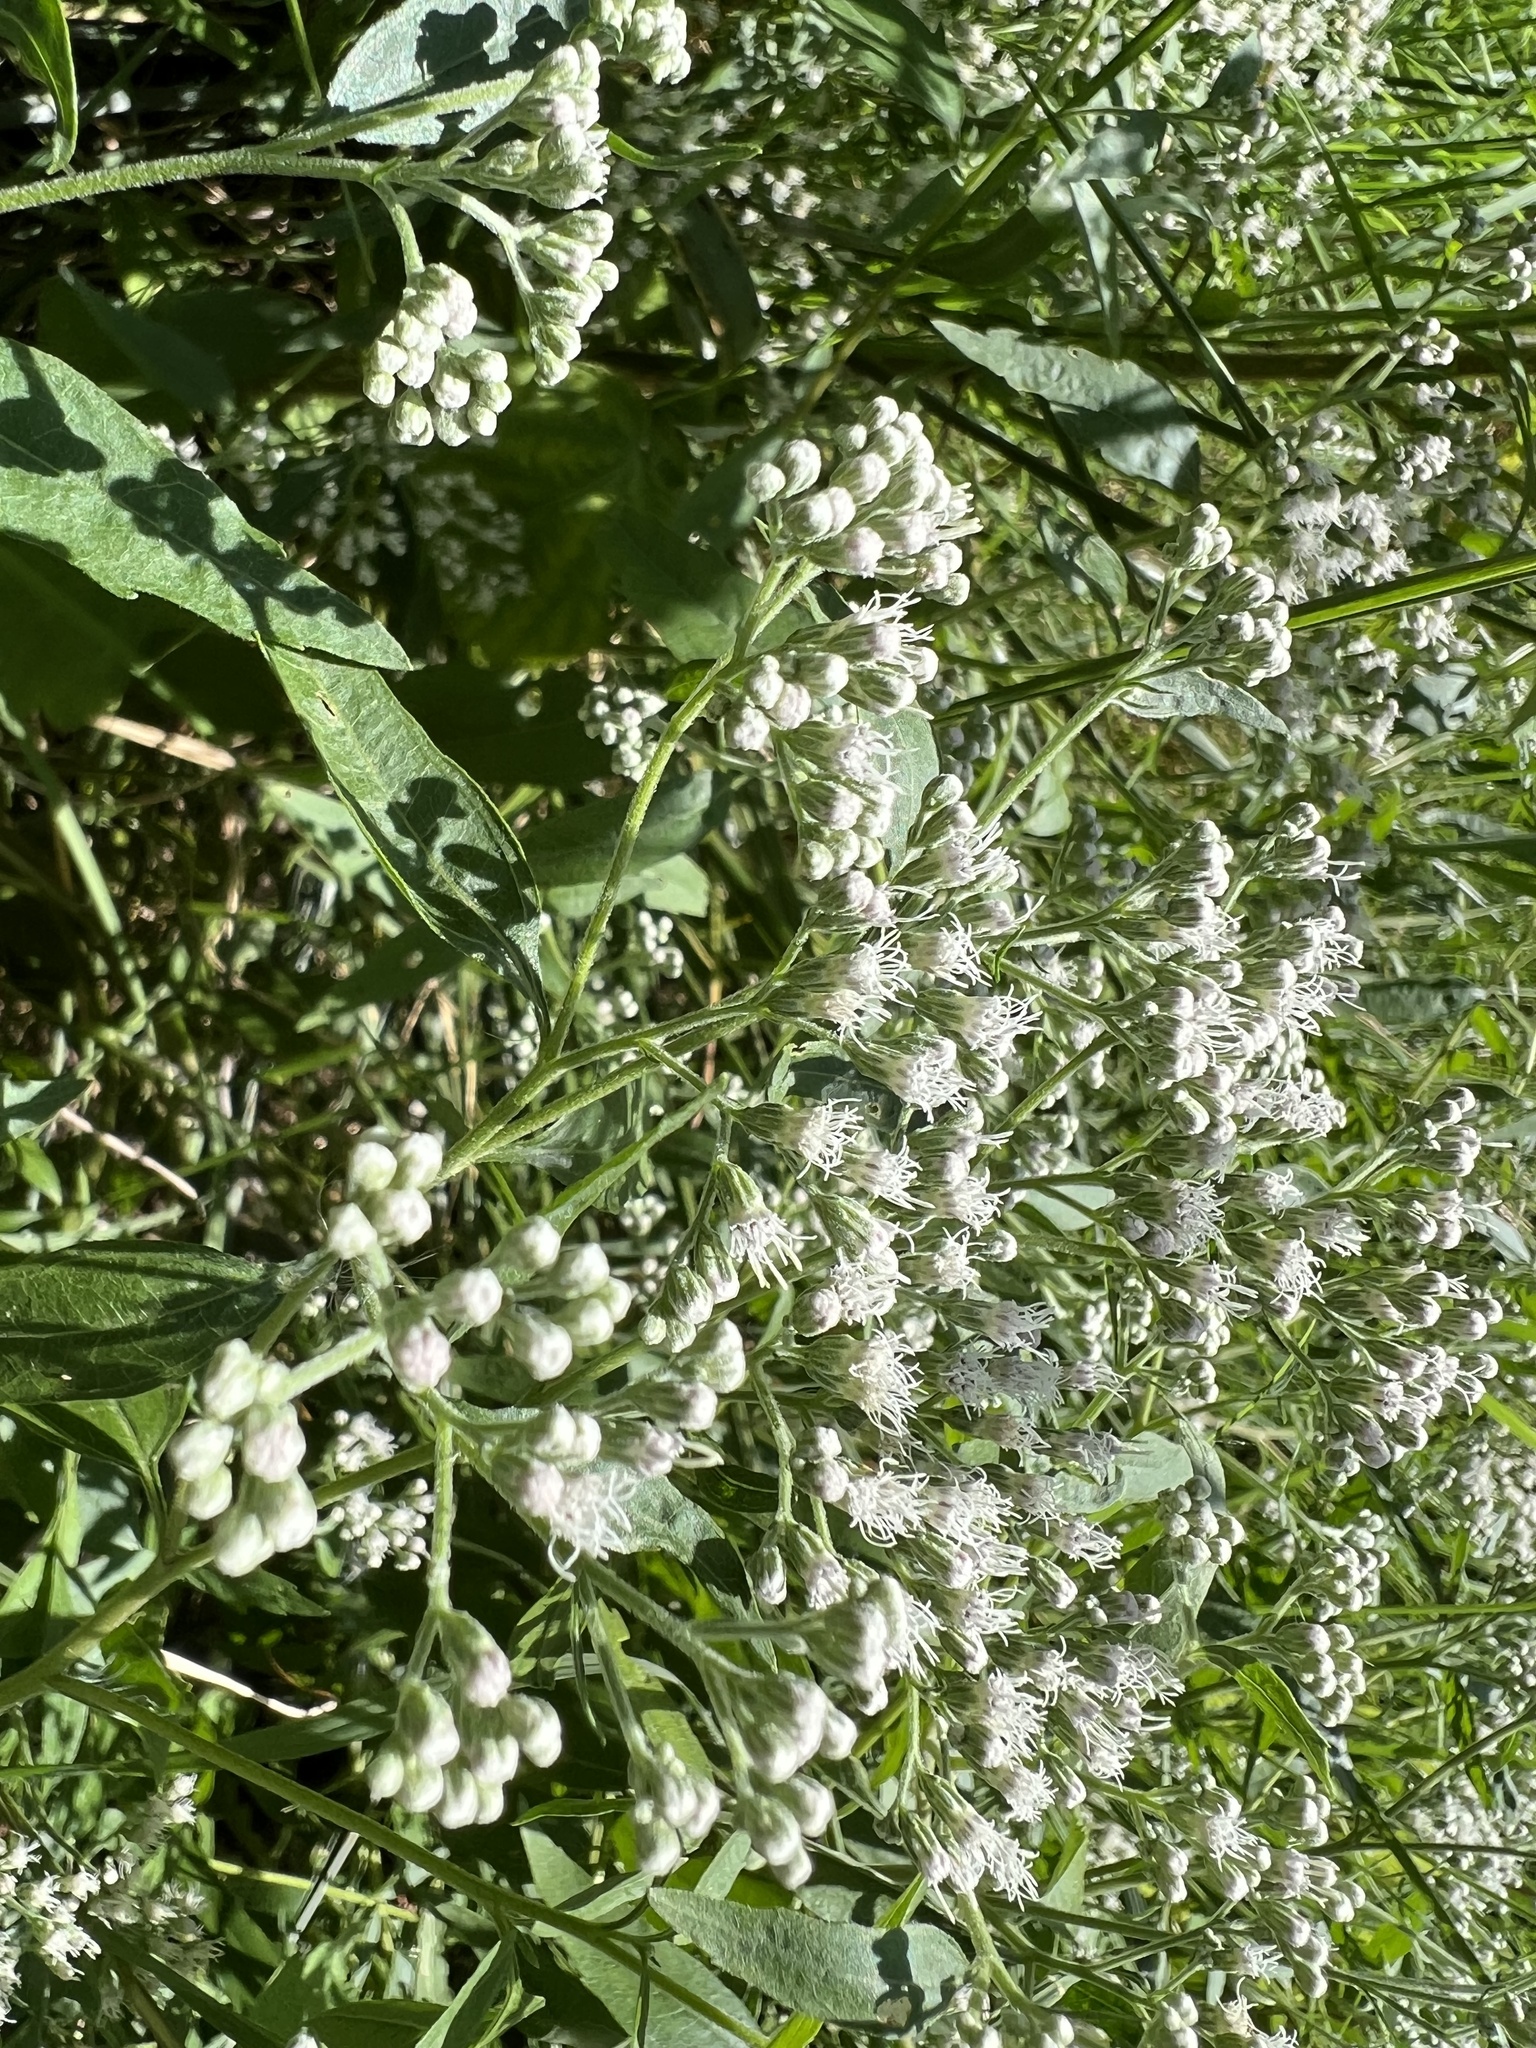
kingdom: Plantae
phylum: Tracheophyta
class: Magnoliopsida
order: Asterales
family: Asteraceae
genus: Eupatorium
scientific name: Eupatorium serotinum
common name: Late boneset
